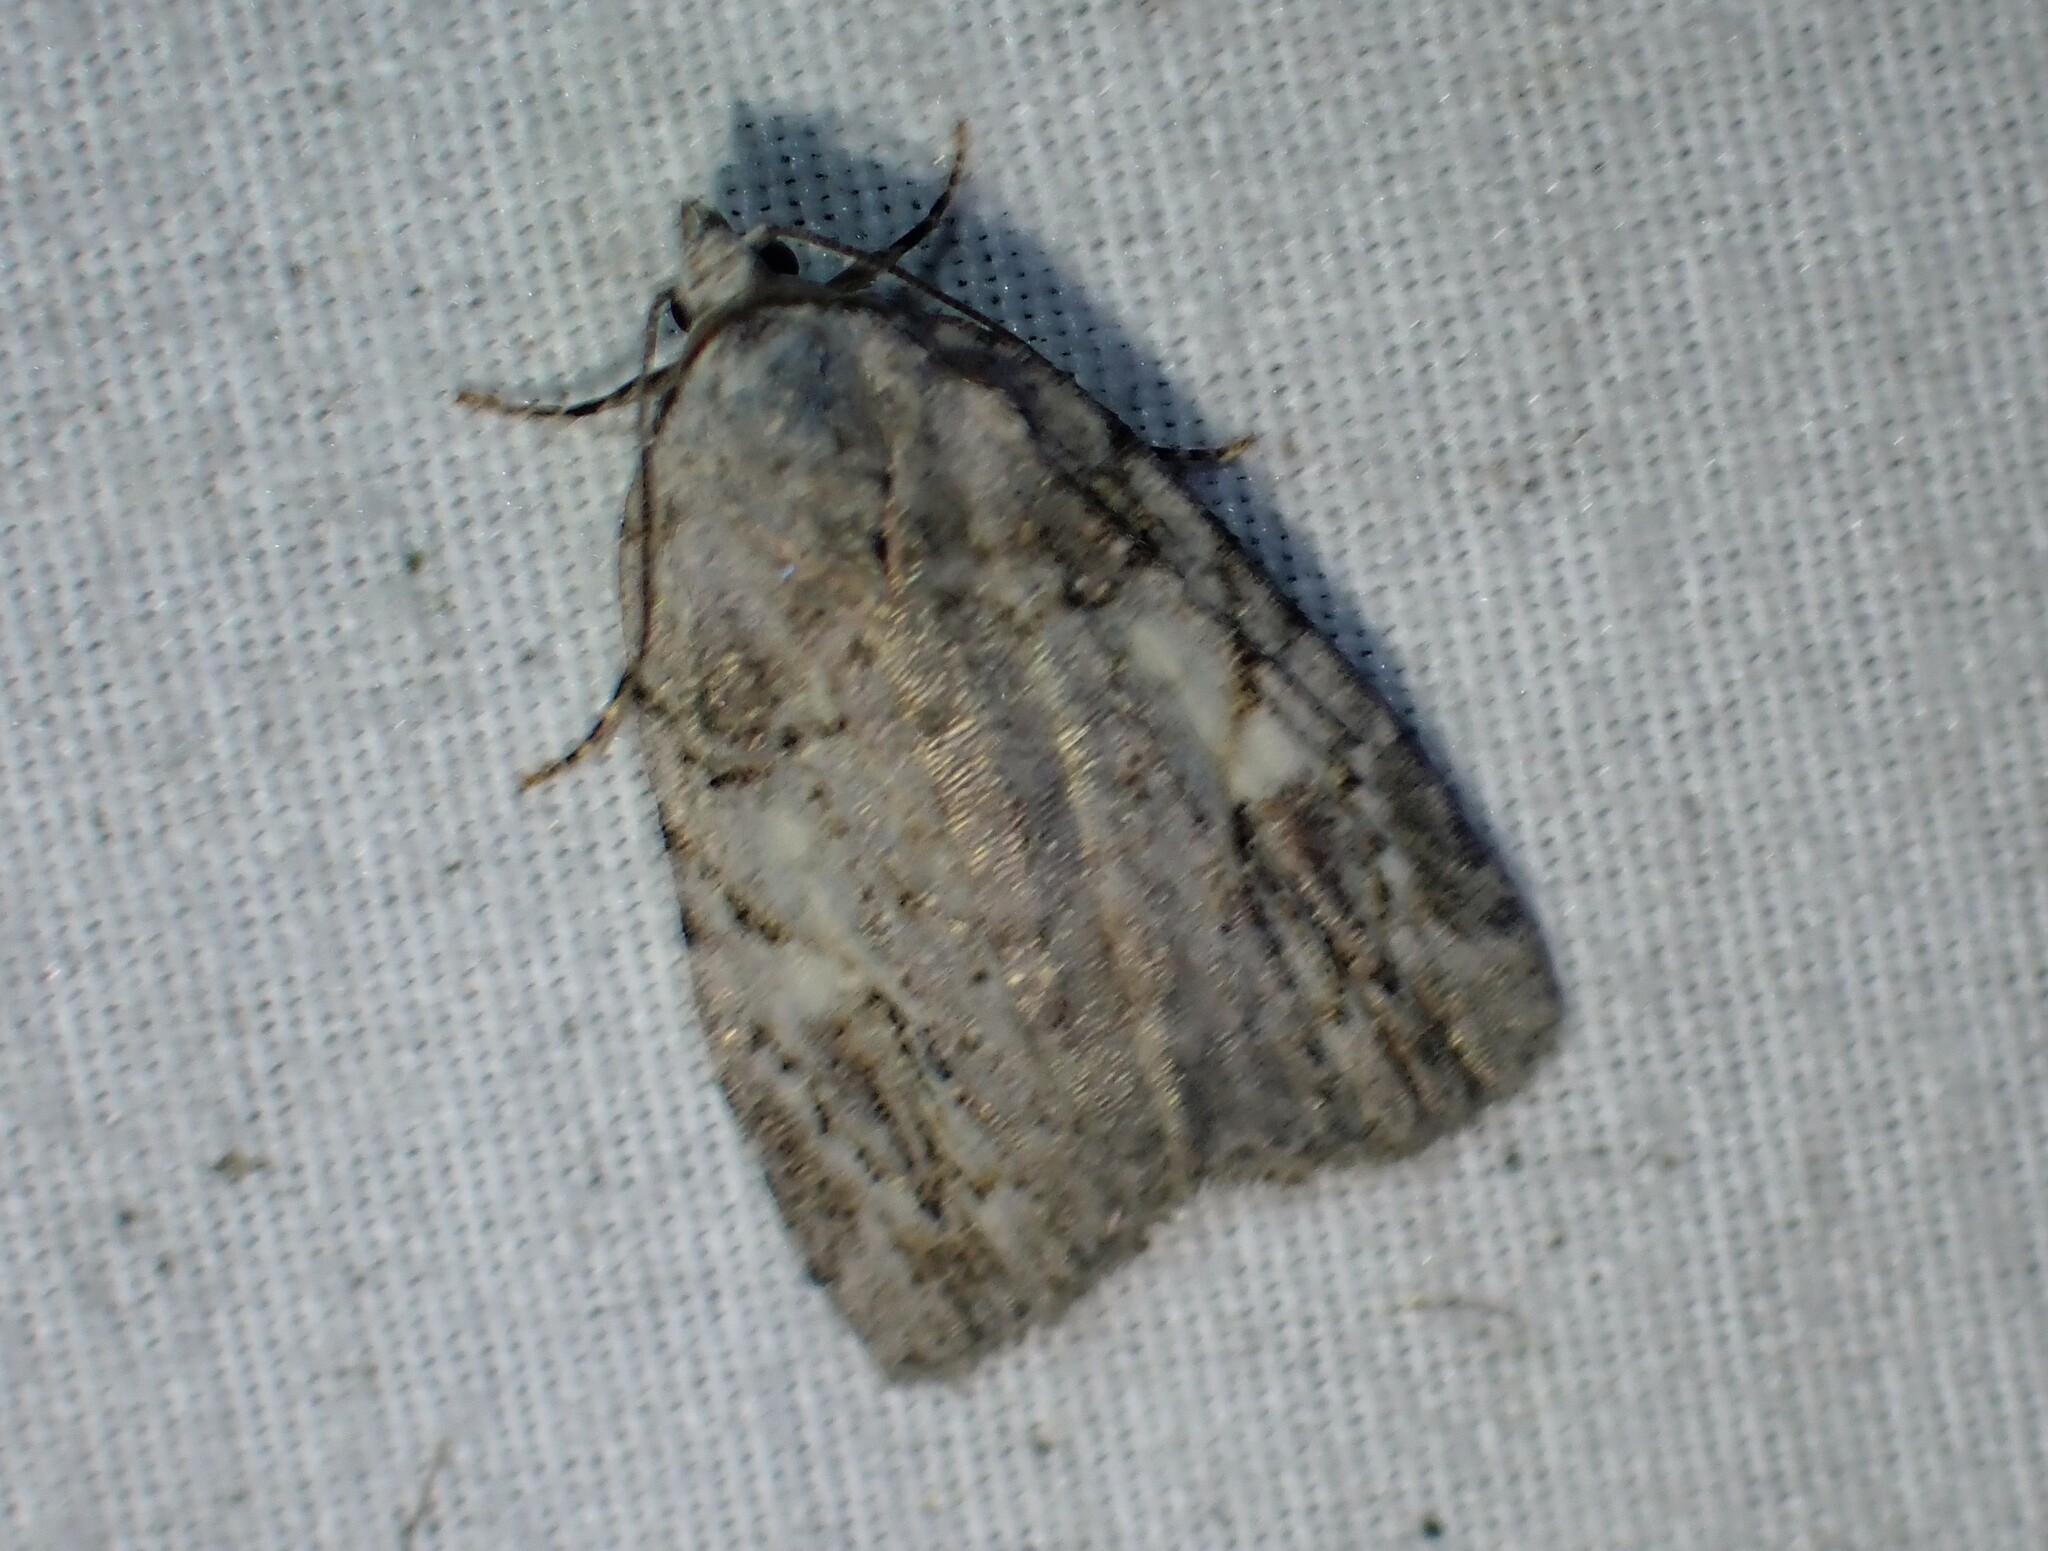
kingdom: Animalia
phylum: Arthropoda
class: Insecta
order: Lepidoptera
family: Noctuidae
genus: Balsa
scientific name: Balsa labecula
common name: White-blotched balsa moth
